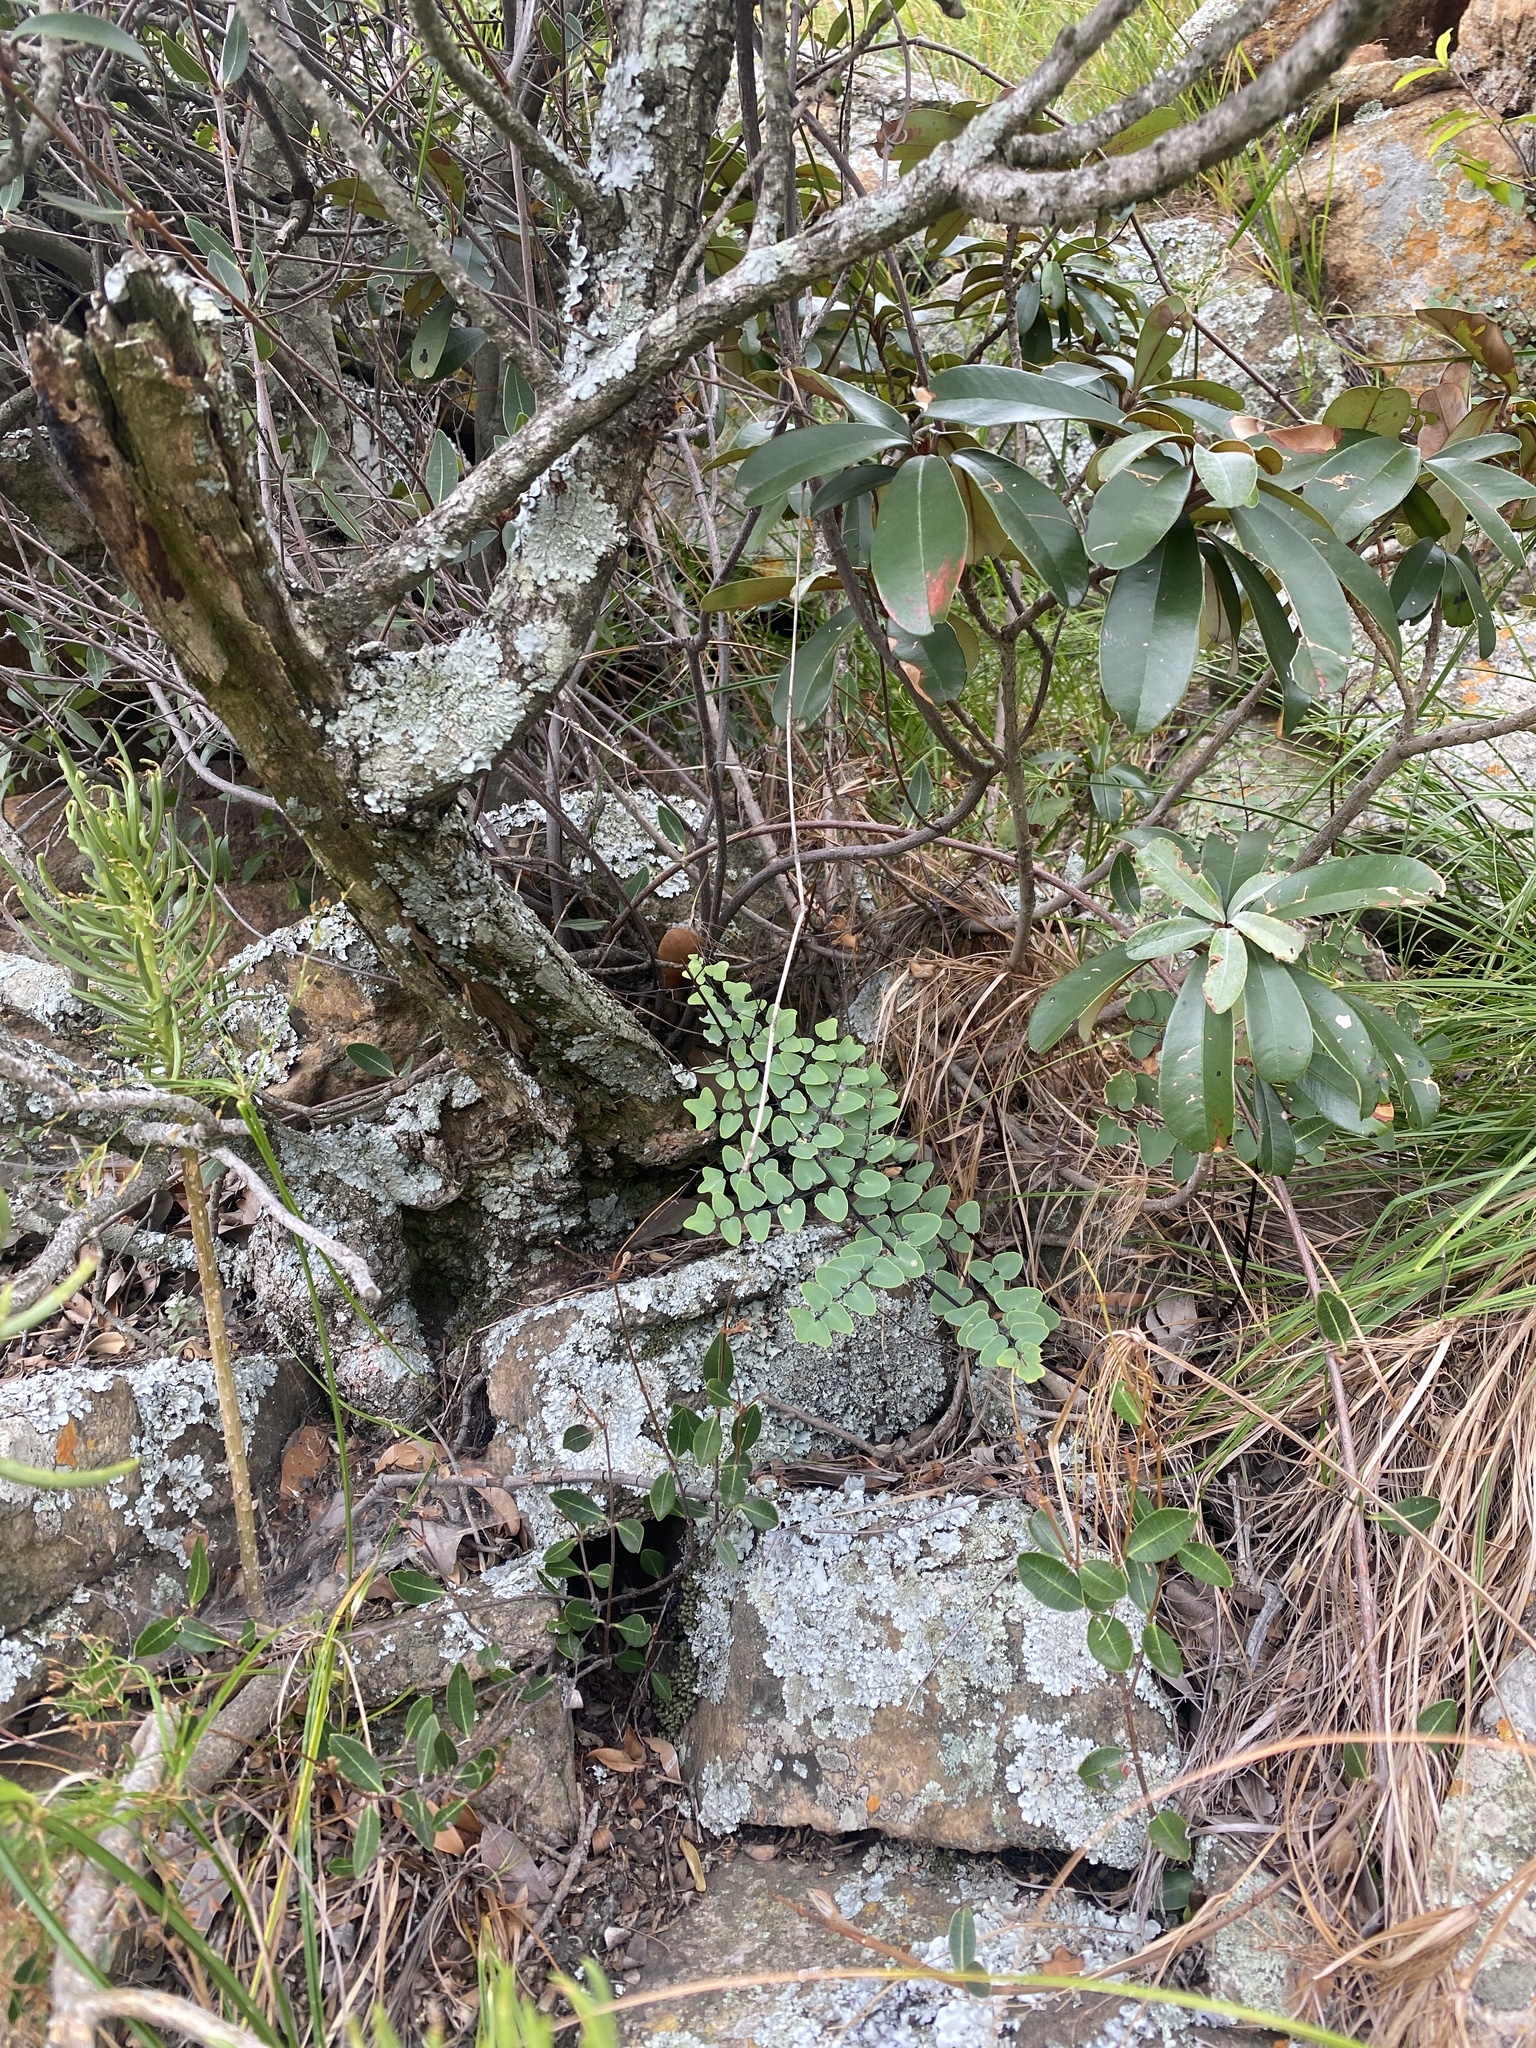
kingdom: Plantae
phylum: Tracheophyta
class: Polypodiopsida
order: Polypodiales
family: Pteridaceae
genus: Pellaea
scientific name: Pellaea calomelanos
